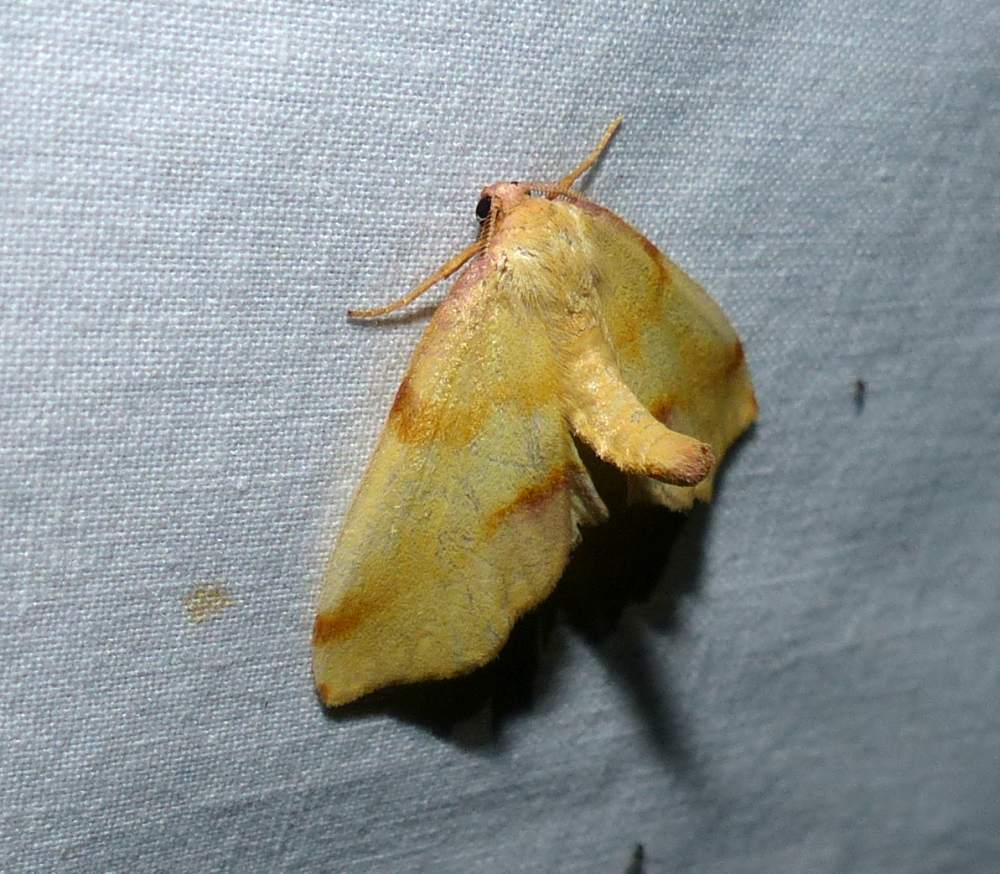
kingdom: Animalia
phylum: Arthropoda
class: Insecta
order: Lepidoptera
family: Geometridae
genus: Plagodis
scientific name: Plagodis serinaria
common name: Lemon plagodis
